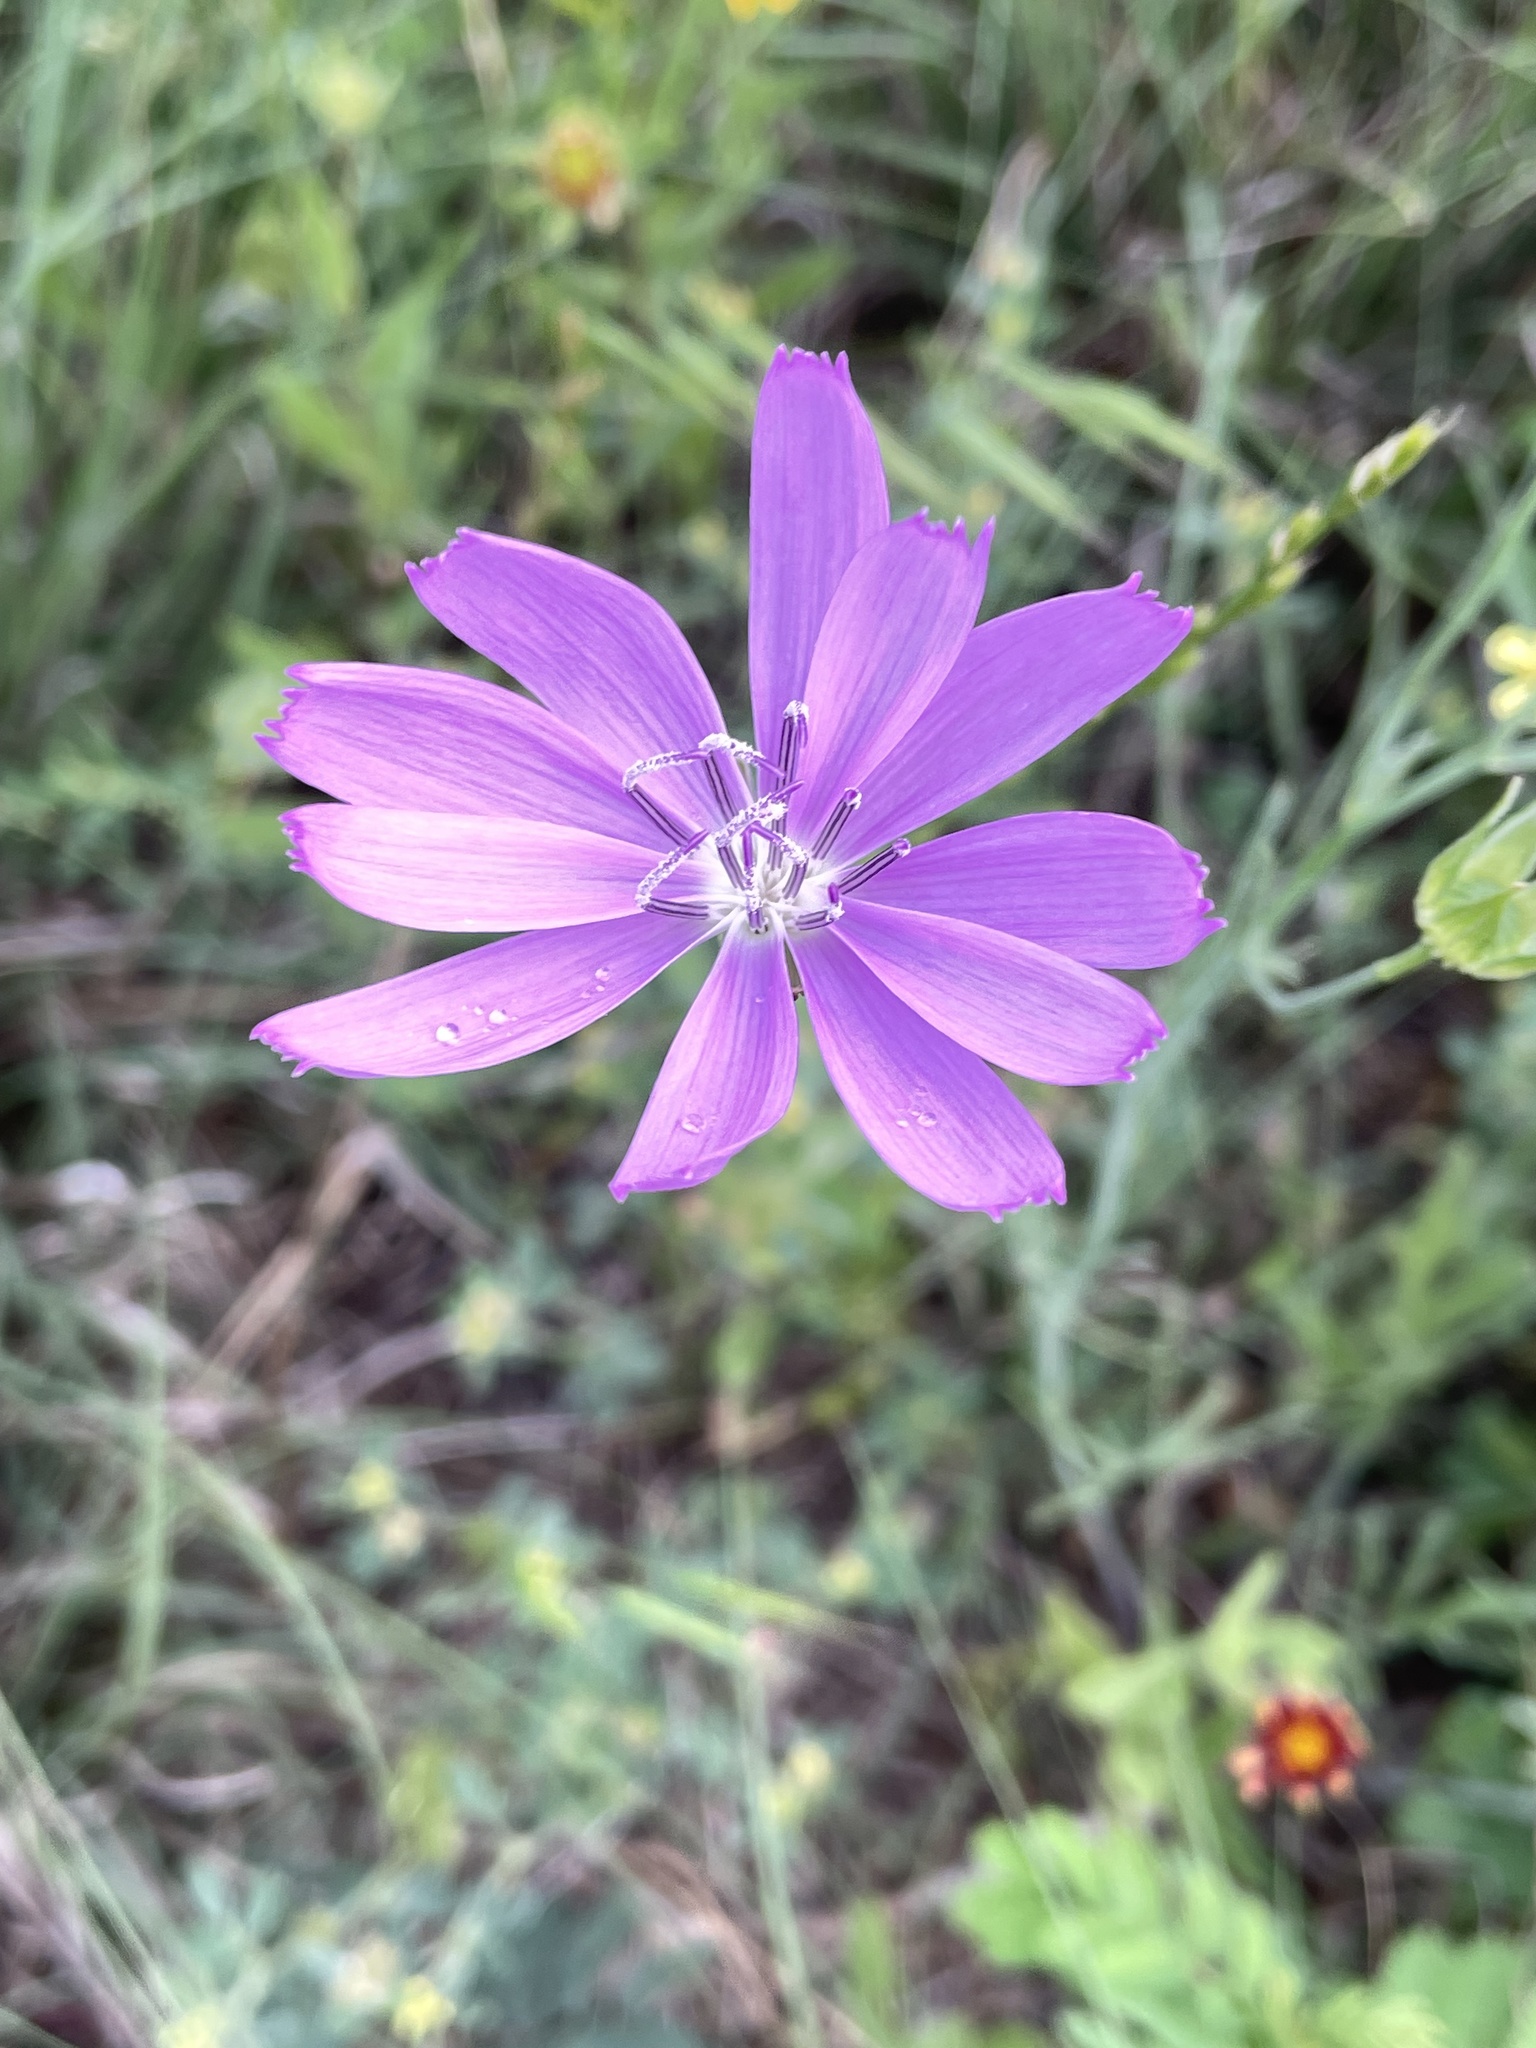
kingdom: Plantae
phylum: Tracheophyta
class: Magnoliopsida
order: Asterales
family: Asteraceae
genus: Lygodesmia
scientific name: Lygodesmia texana
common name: Texas skeleton-plant
